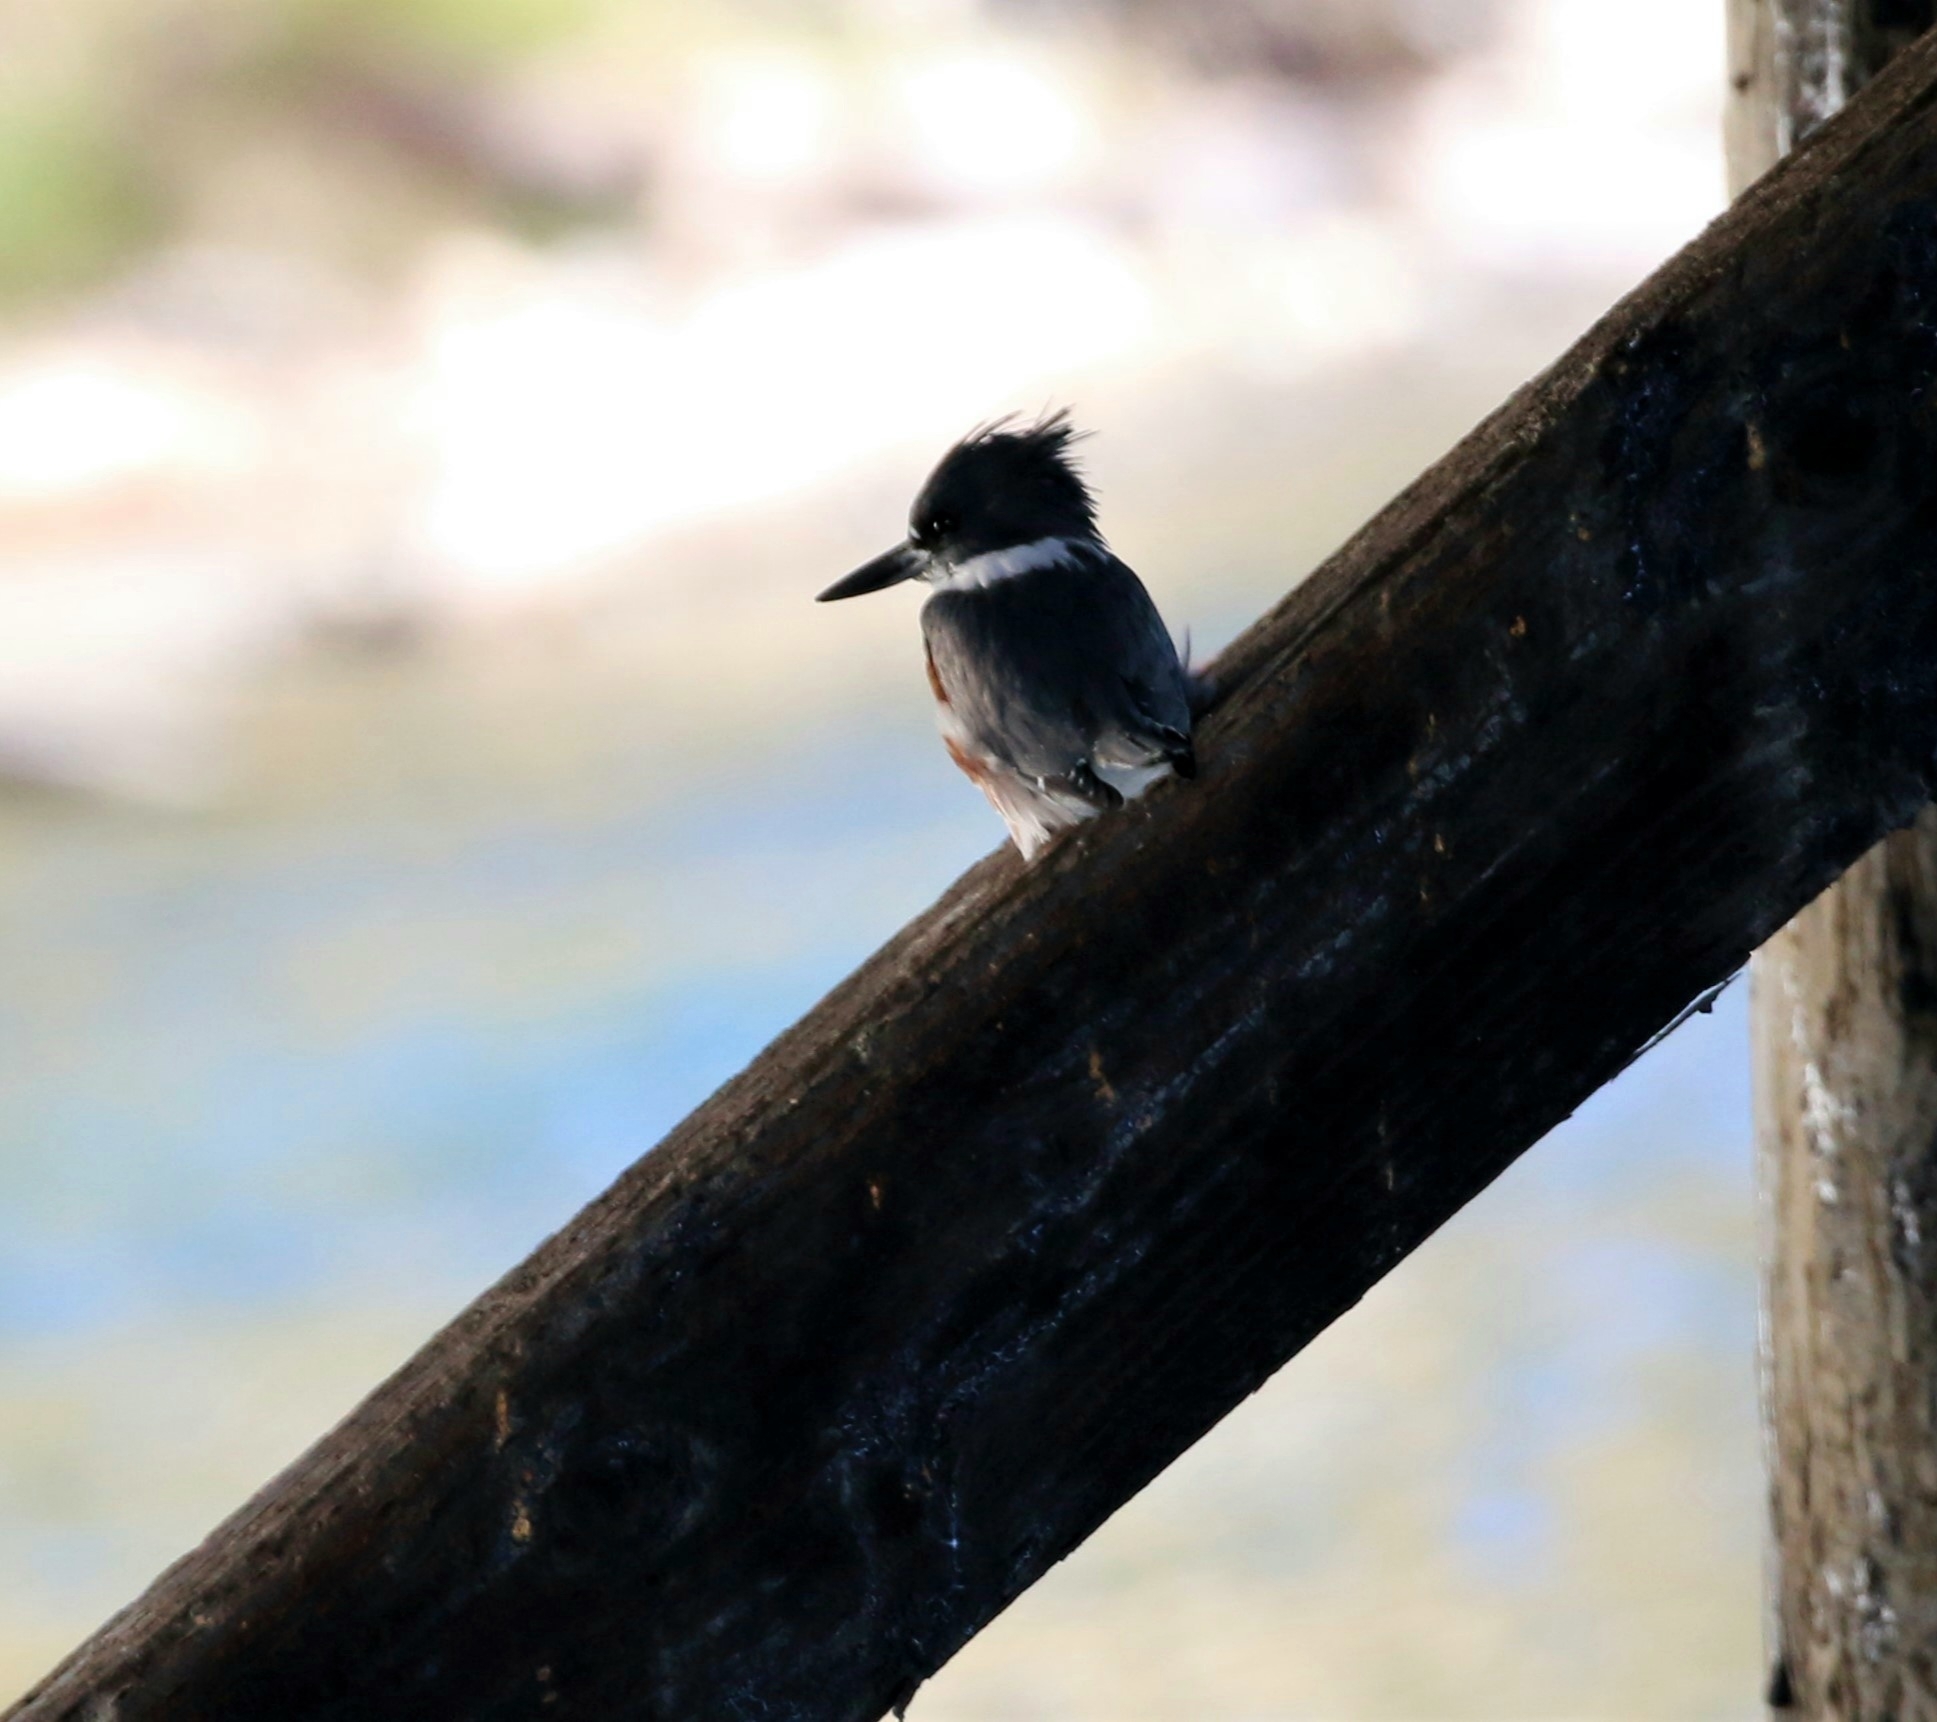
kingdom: Animalia
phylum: Chordata
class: Aves
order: Coraciiformes
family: Alcedinidae
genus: Megaceryle
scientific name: Megaceryle alcyon
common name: Belted kingfisher
